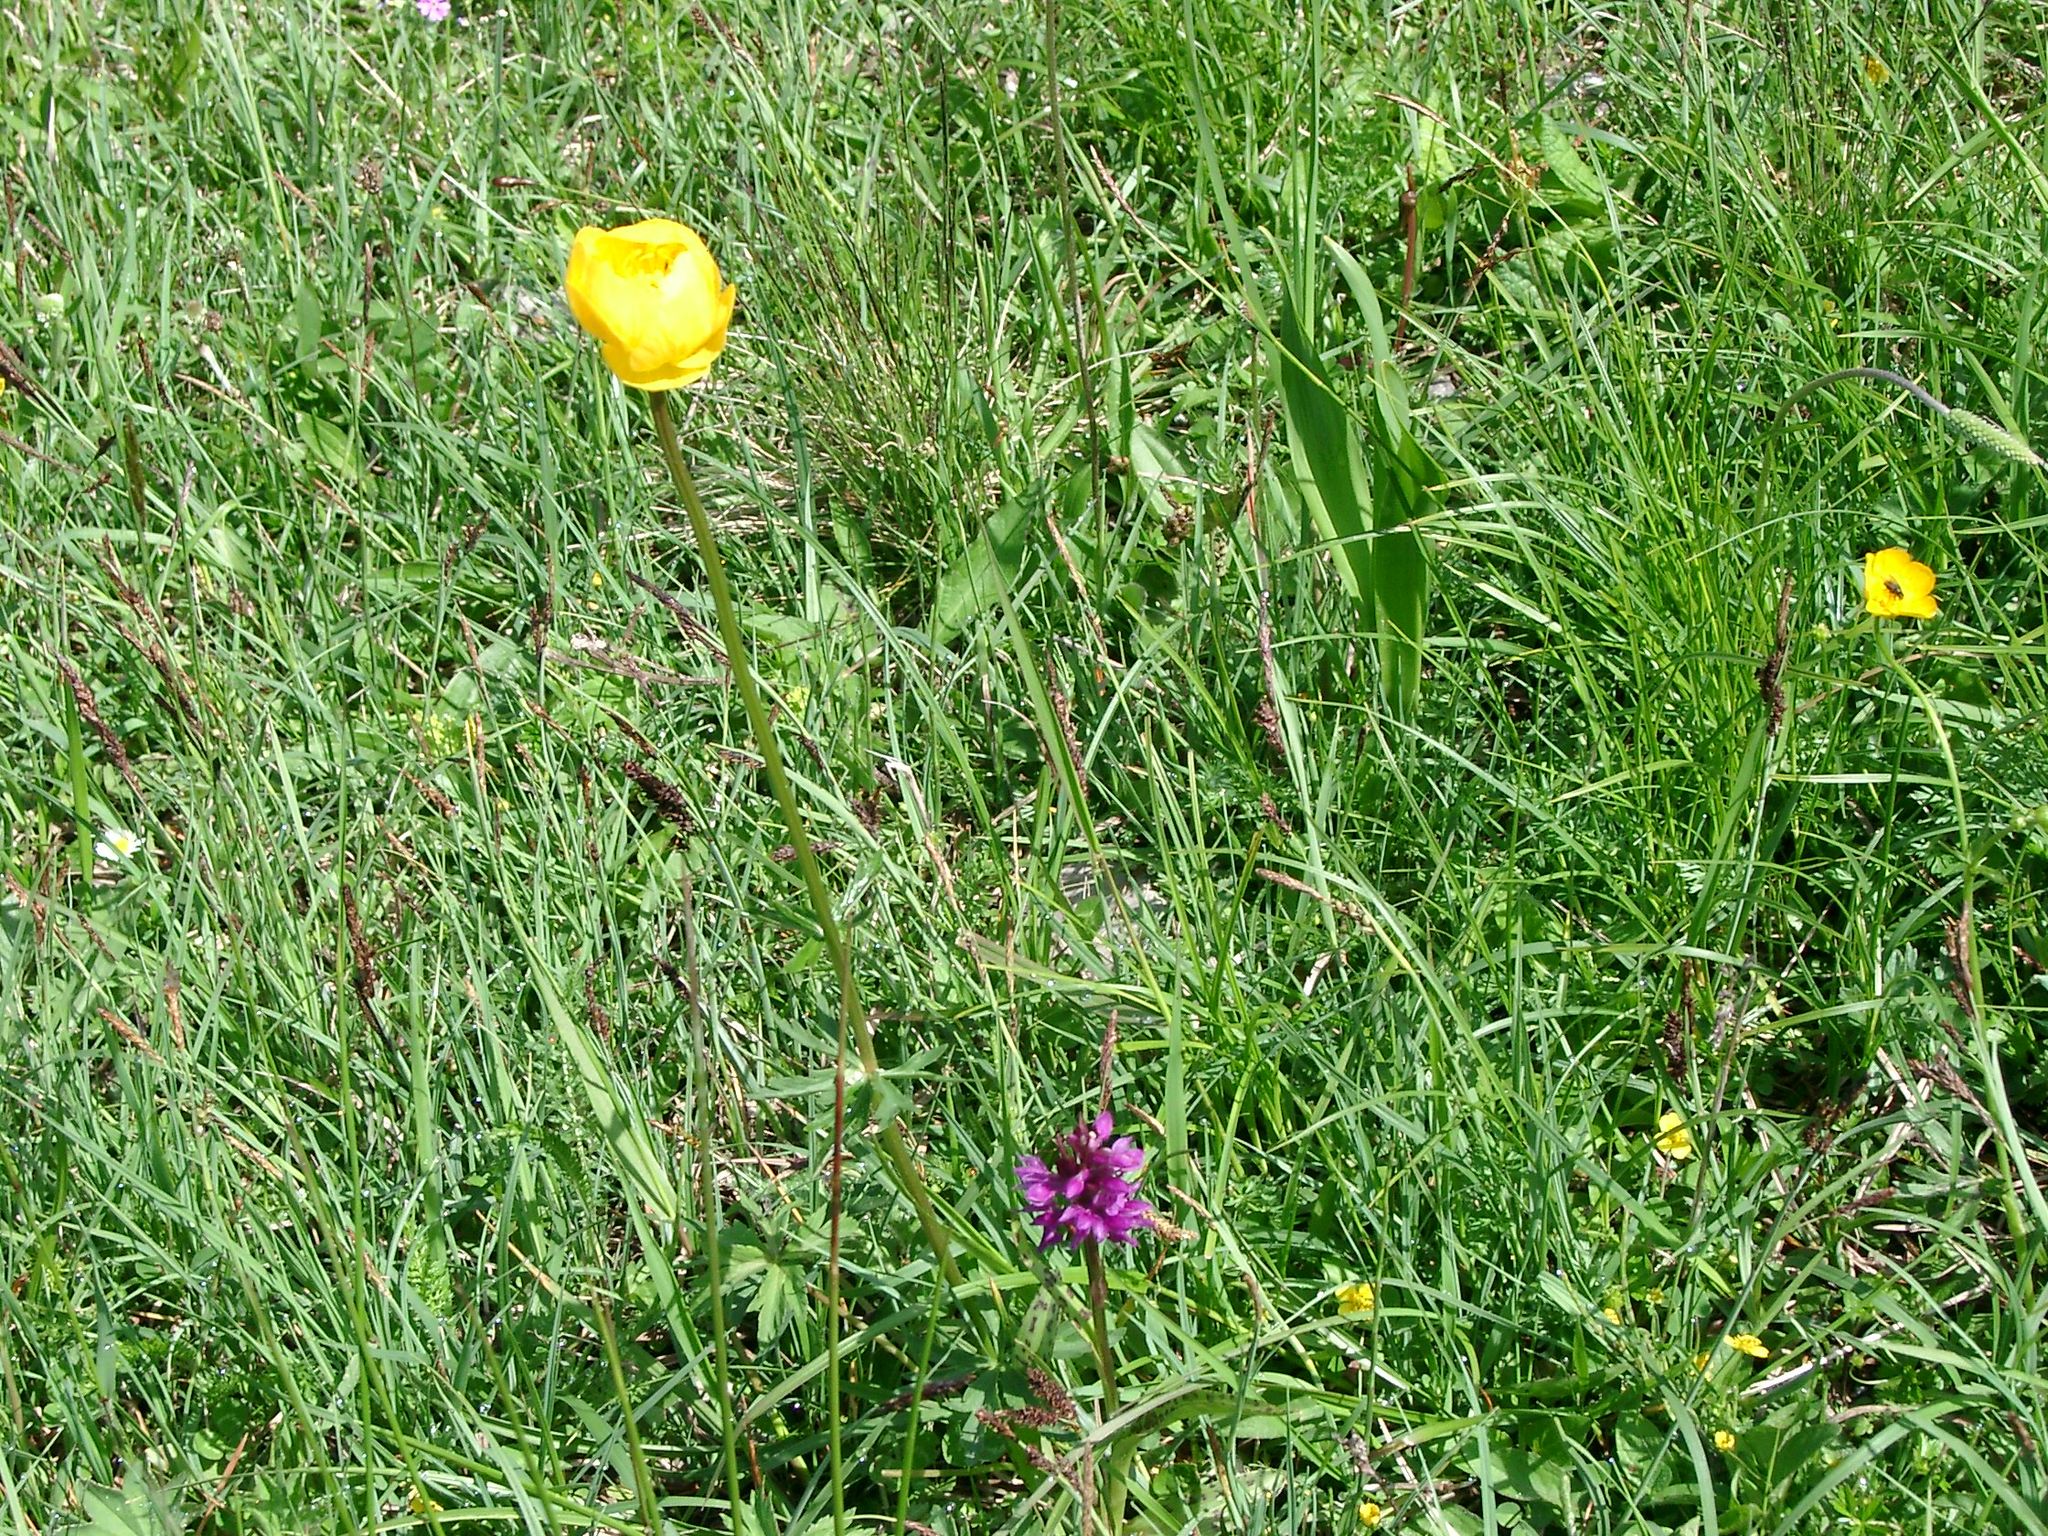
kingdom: Plantae
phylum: Tracheophyta
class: Liliopsida
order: Asparagales
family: Orchidaceae
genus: Dactylorhiza
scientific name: Dactylorhiza majalis
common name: Marsh orchid
